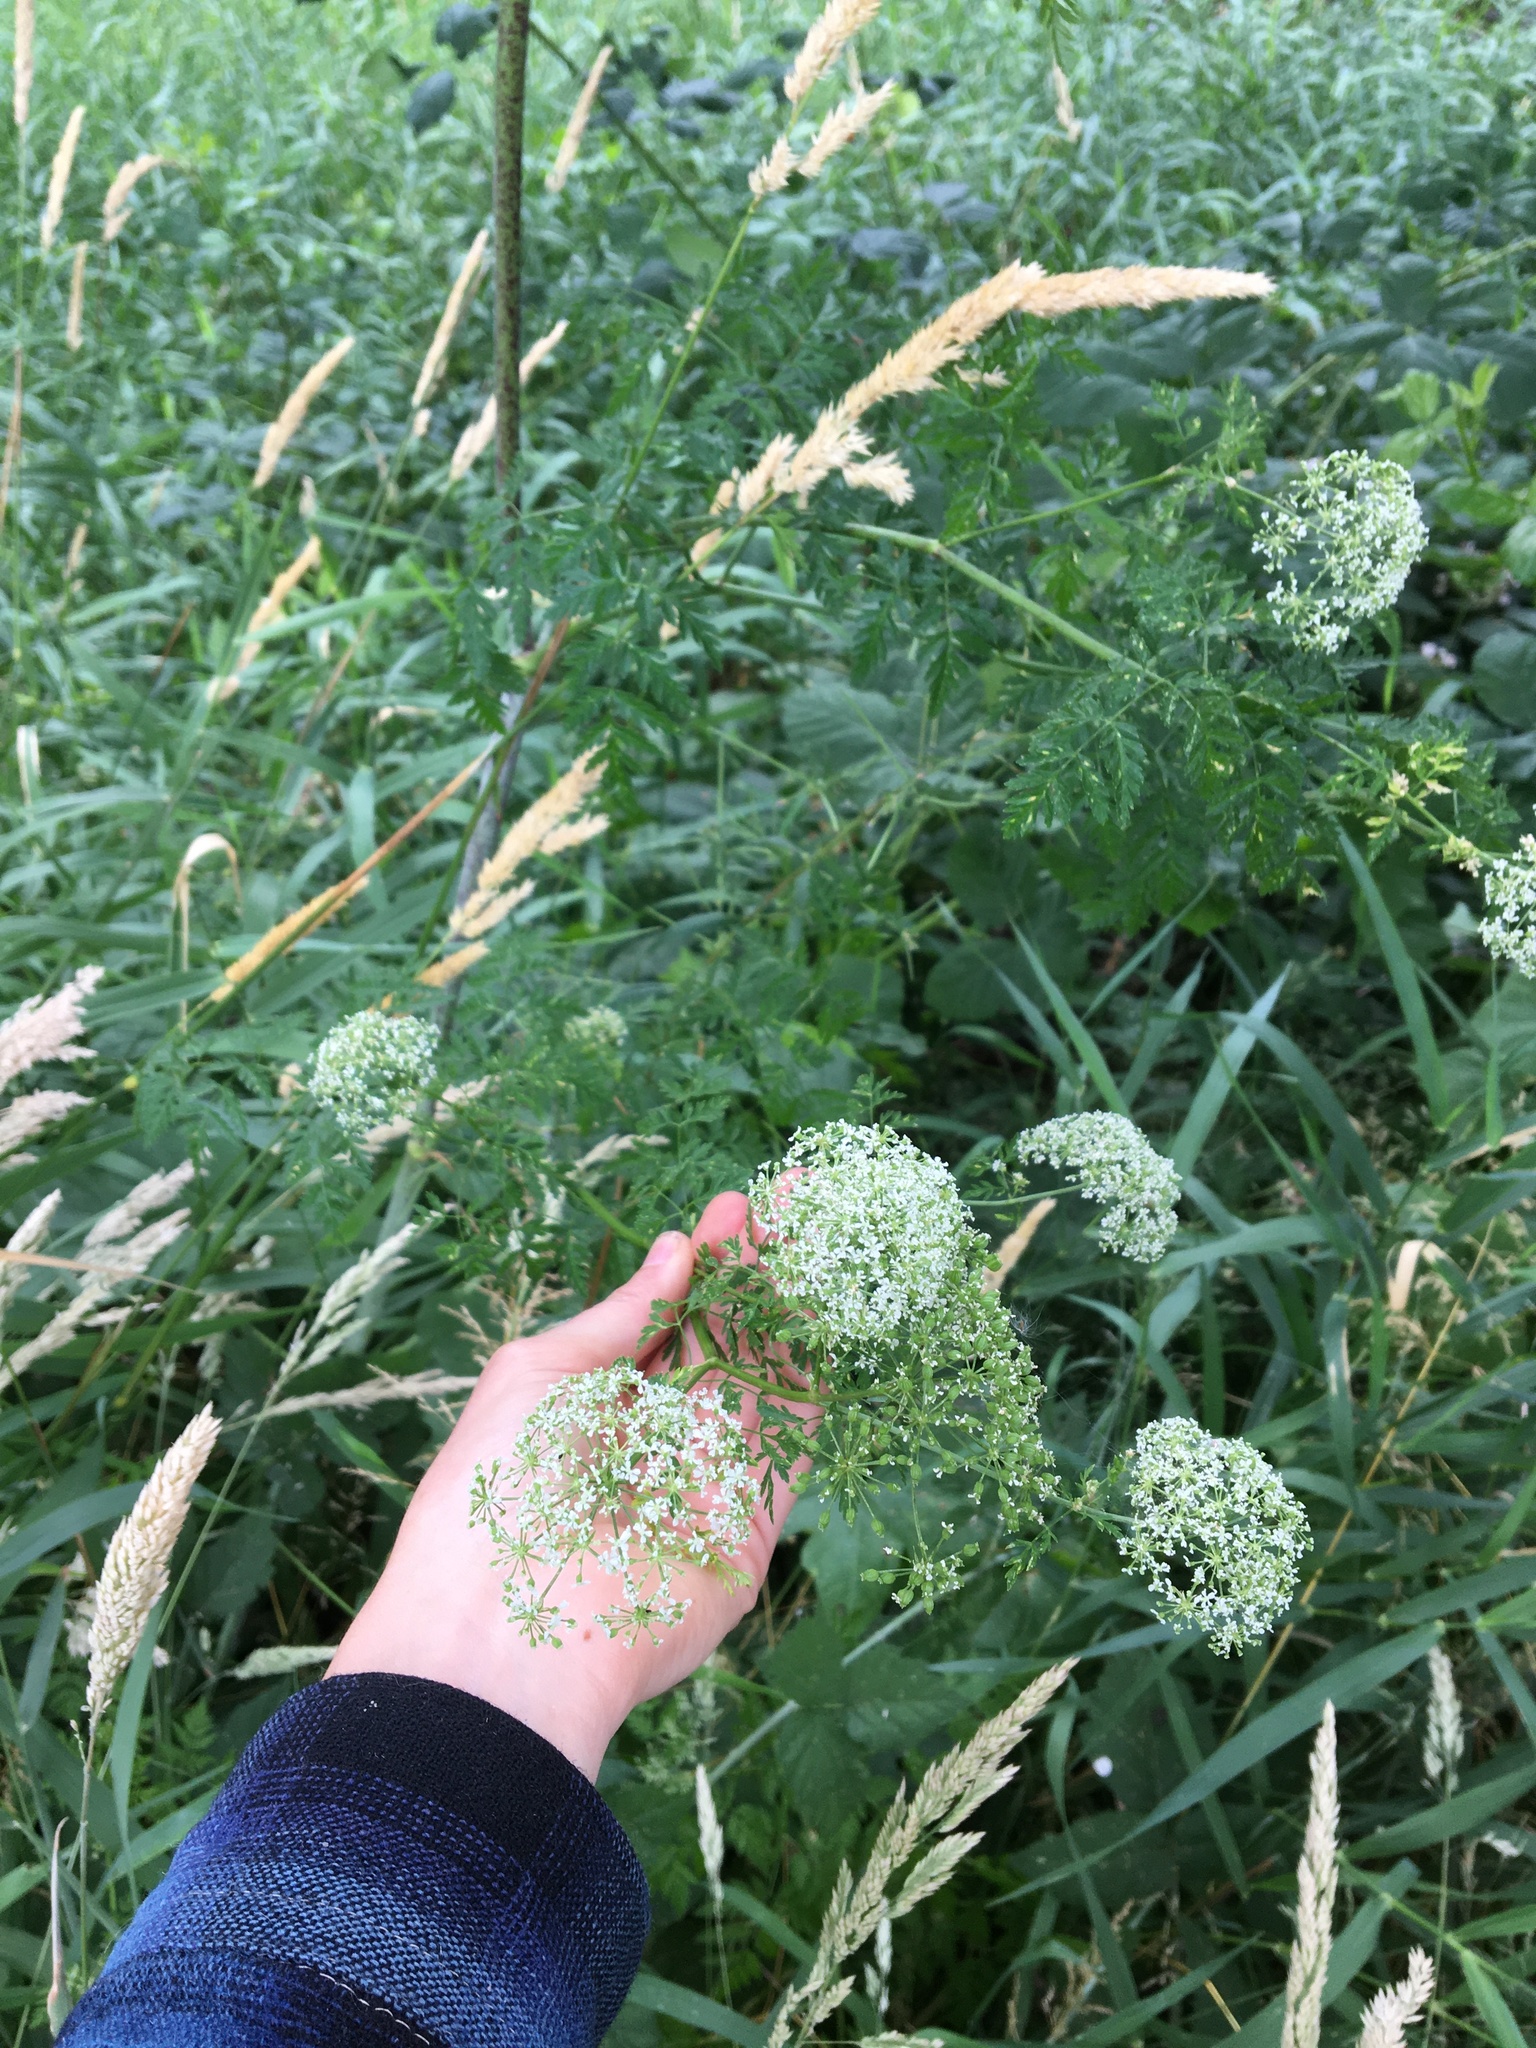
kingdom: Plantae
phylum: Tracheophyta
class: Magnoliopsida
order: Apiales
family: Apiaceae
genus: Conium
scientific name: Conium maculatum
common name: Hemlock
